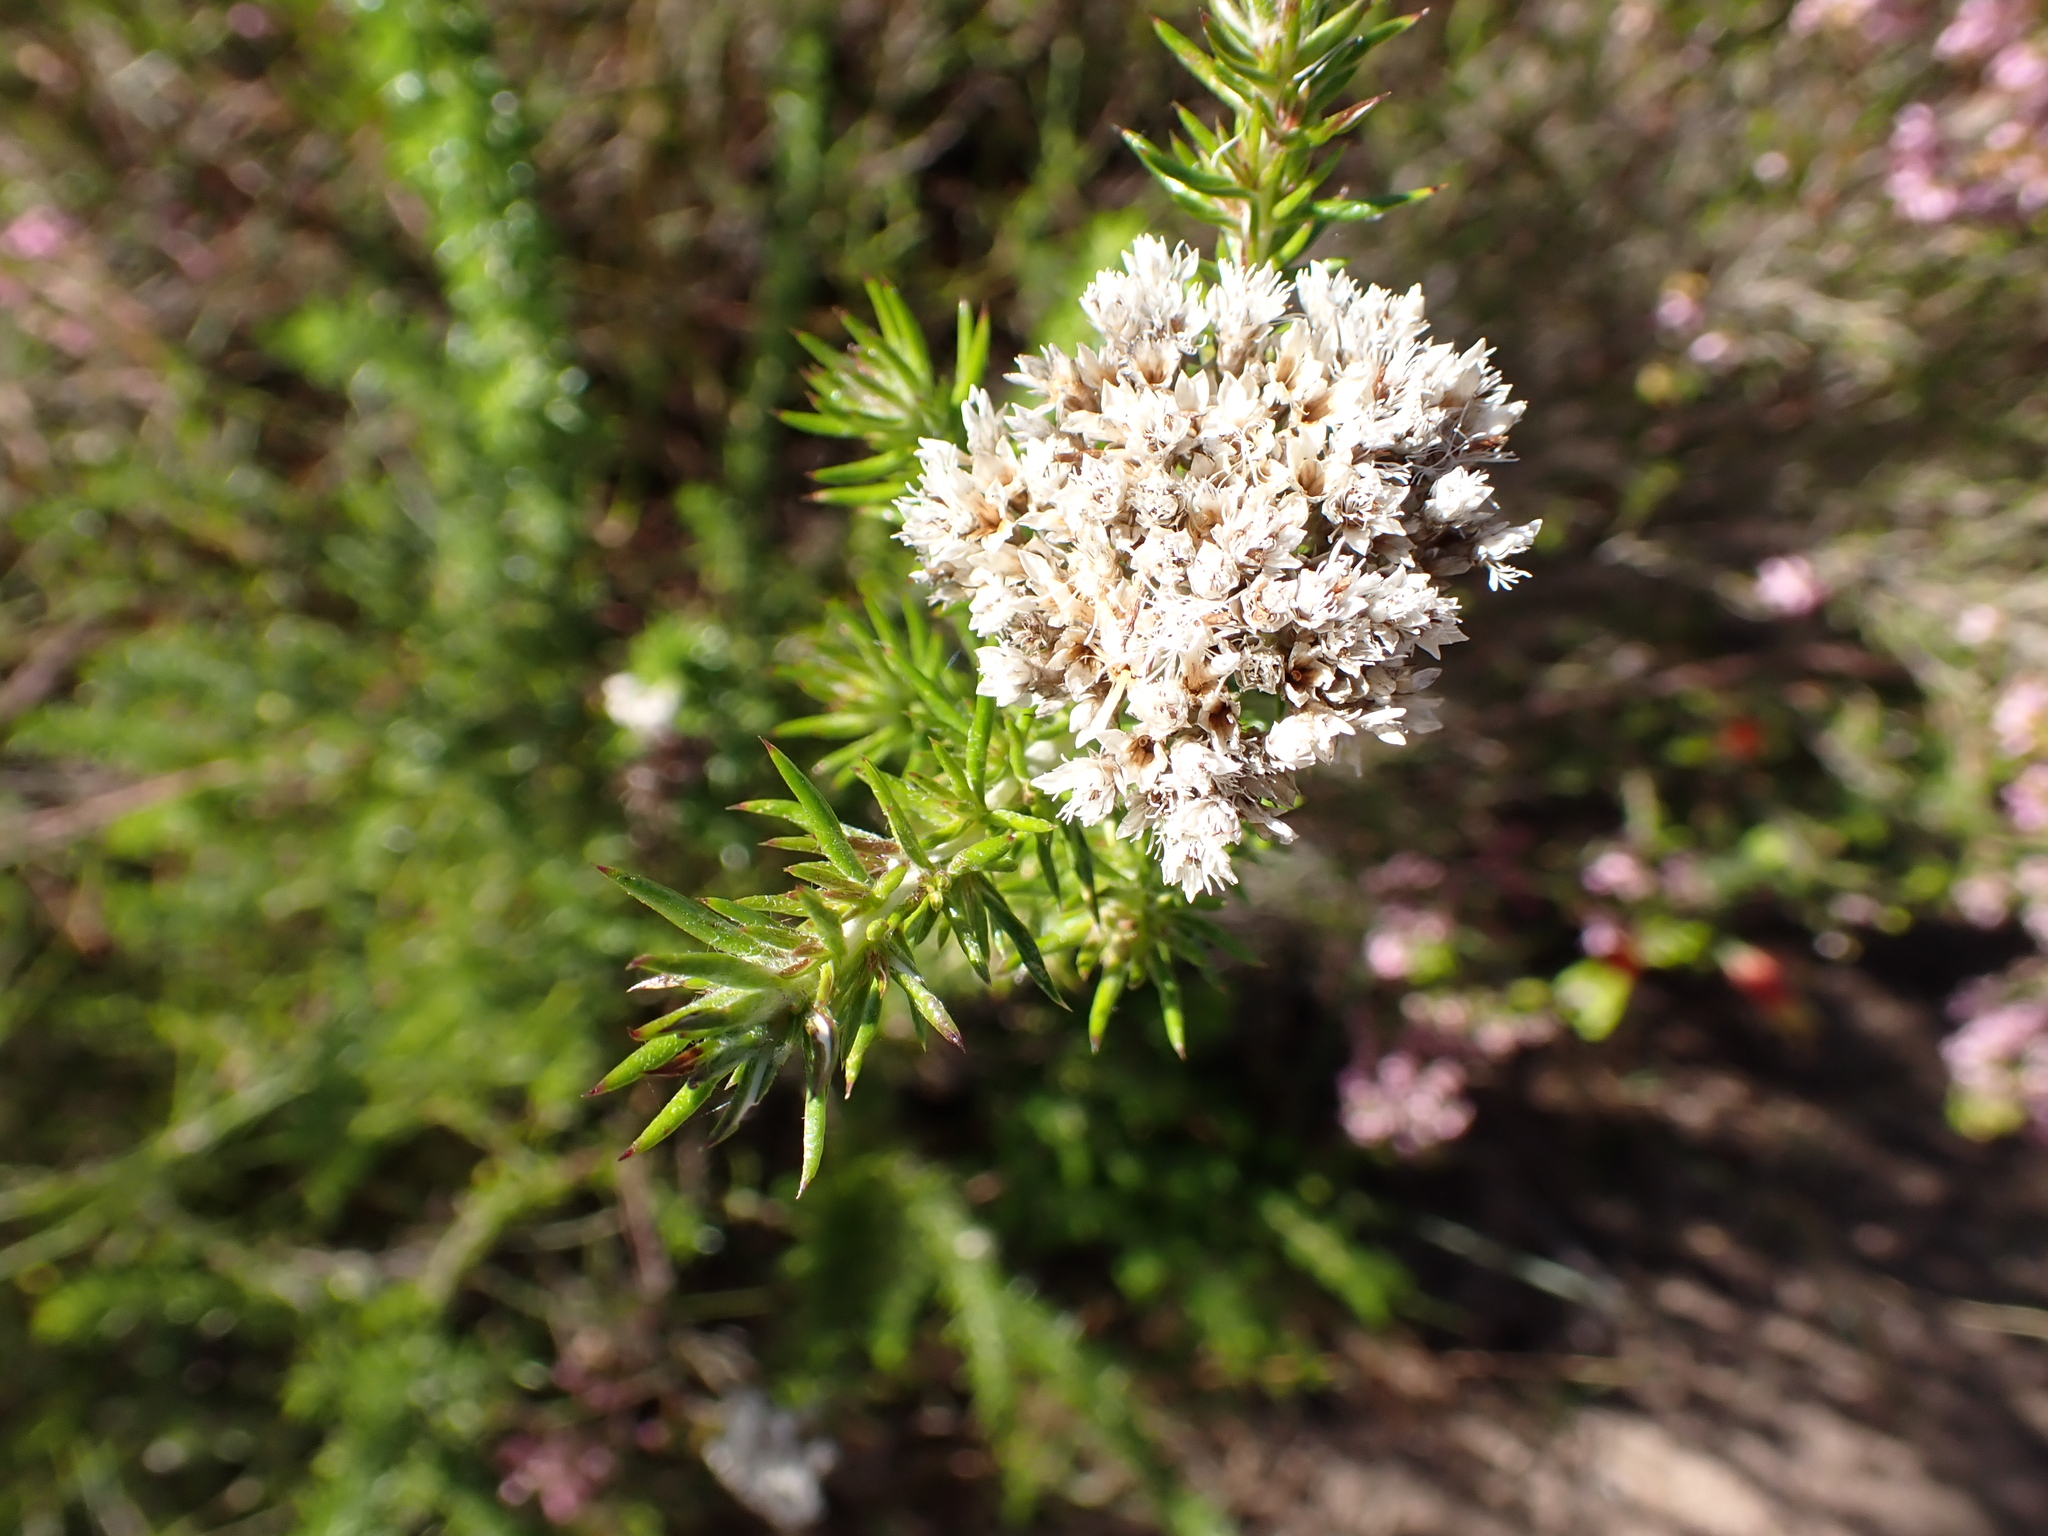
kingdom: Plantae
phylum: Tracheophyta
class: Magnoliopsida
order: Asterales
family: Asteraceae
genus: Metalasia
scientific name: Metalasia trivialis
